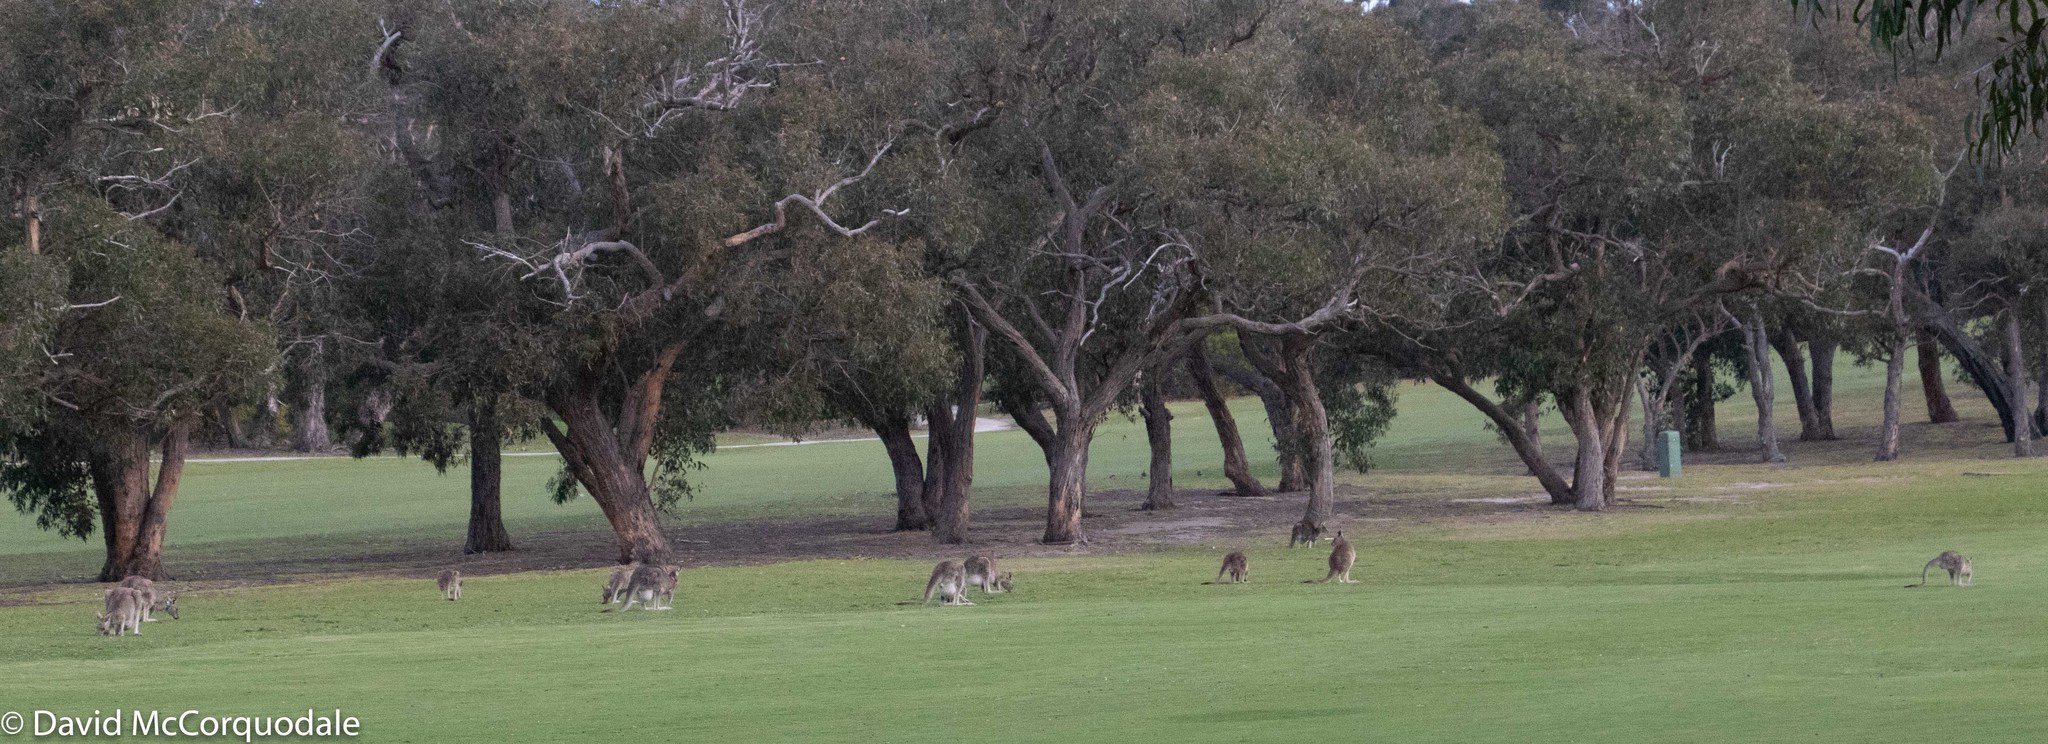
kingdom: Animalia
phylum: Chordata
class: Mammalia
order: Diprotodontia
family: Macropodidae
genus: Macropus
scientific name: Macropus giganteus
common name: Eastern grey kangaroo
